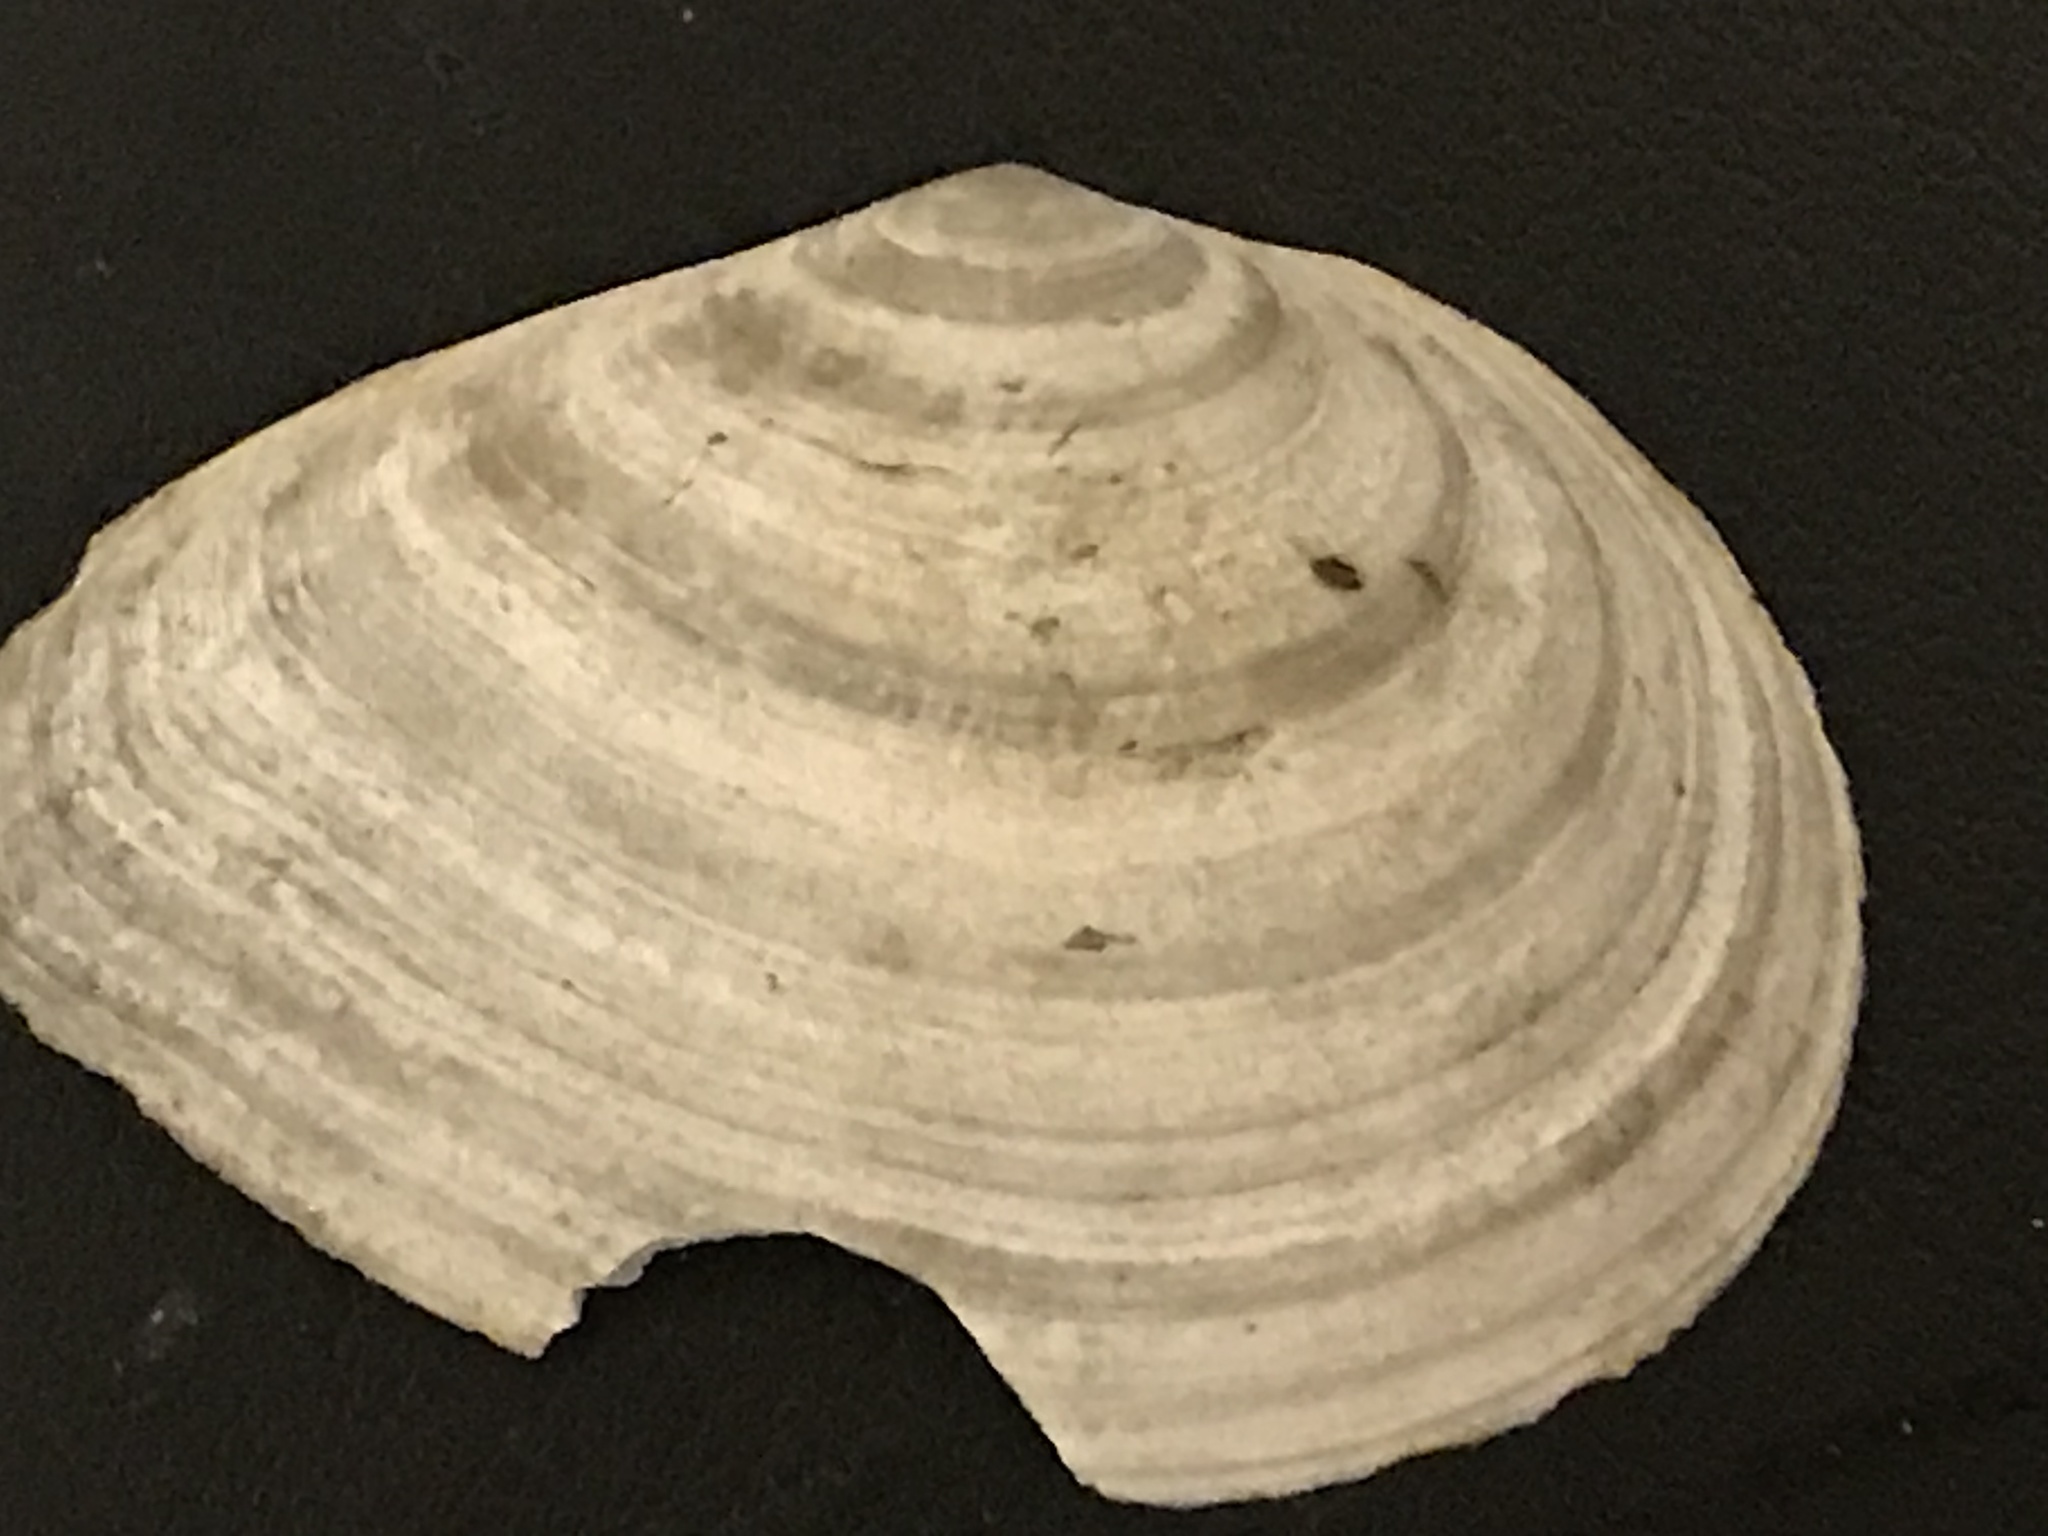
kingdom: Animalia
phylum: Mollusca
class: Bivalvia
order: Cardiida
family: Tellinidae
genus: Macoma
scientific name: Macoma nasuta
